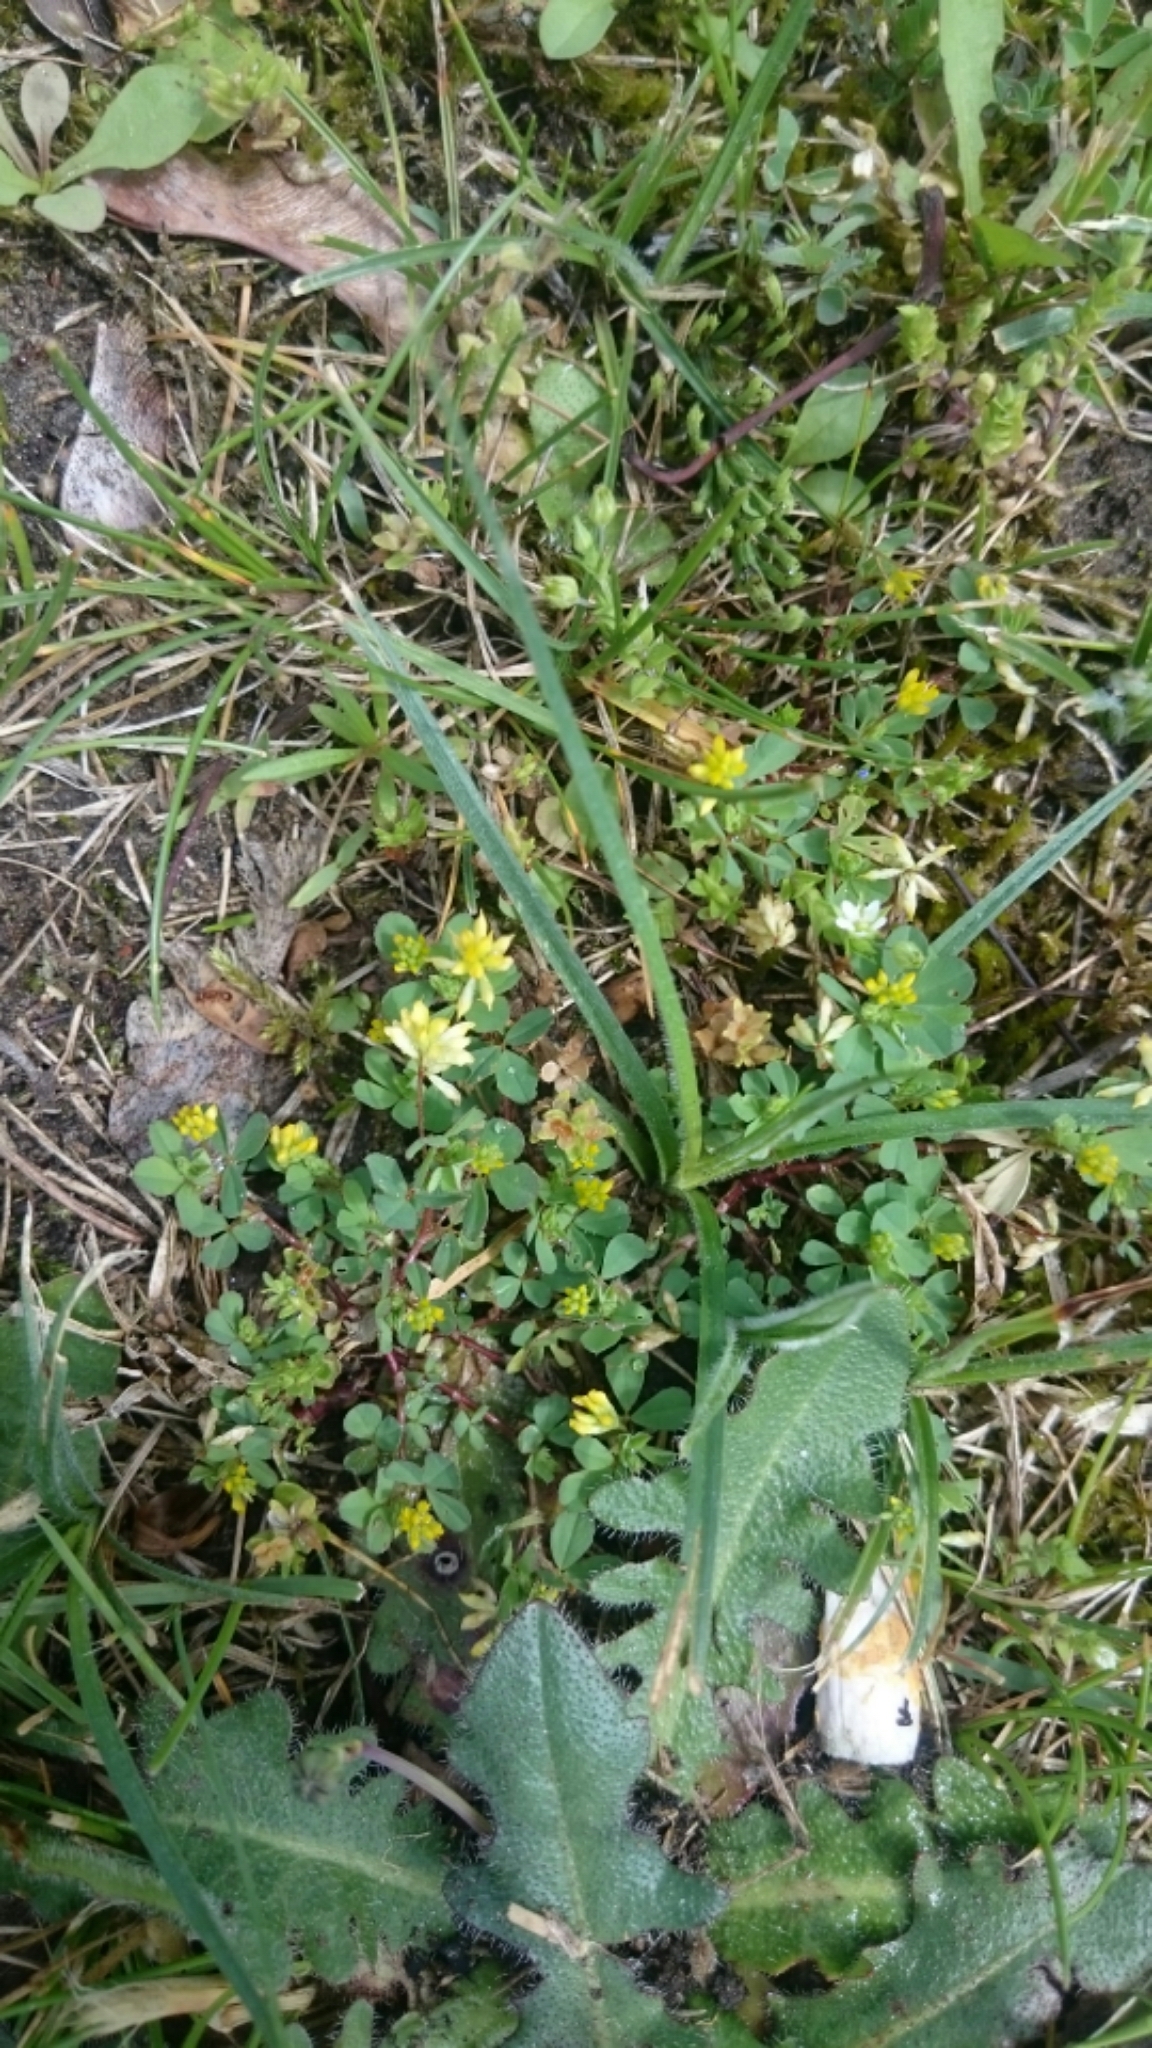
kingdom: Plantae
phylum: Tracheophyta
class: Magnoliopsida
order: Fabales
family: Fabaceae
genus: Trifolium
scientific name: Trifolium dubium
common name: Suckling clover
